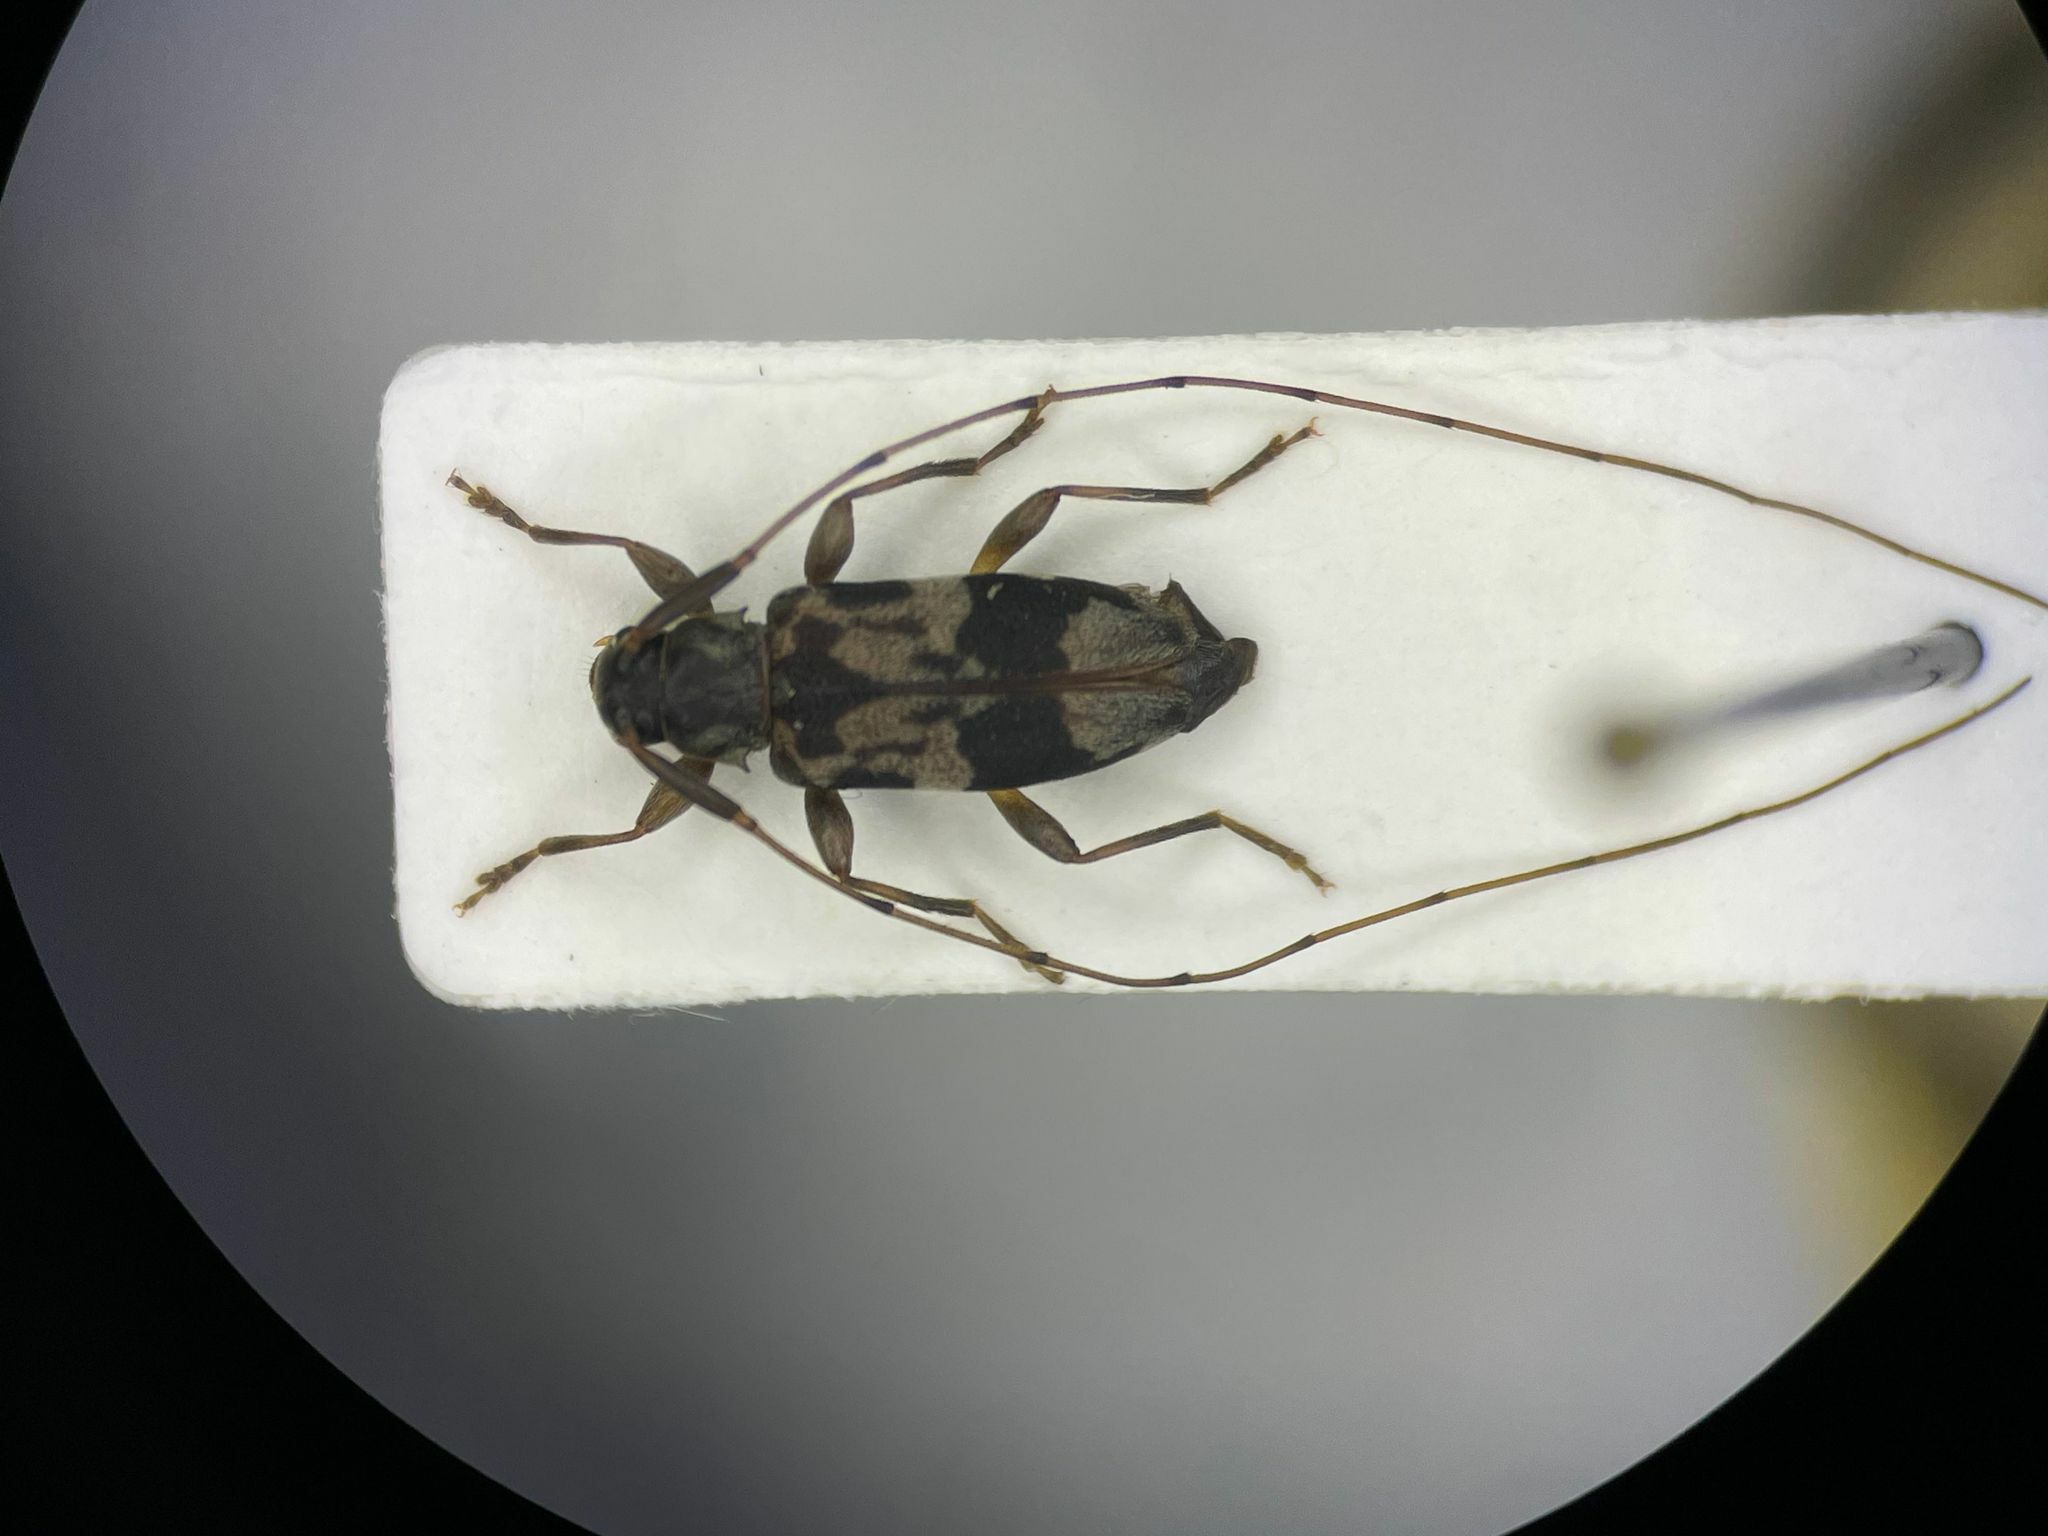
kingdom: Animalia
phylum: Arthropoda
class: Insecta
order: Coleoptera
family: Cerambycidae
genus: Urgleptes
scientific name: Urgleptes querci
